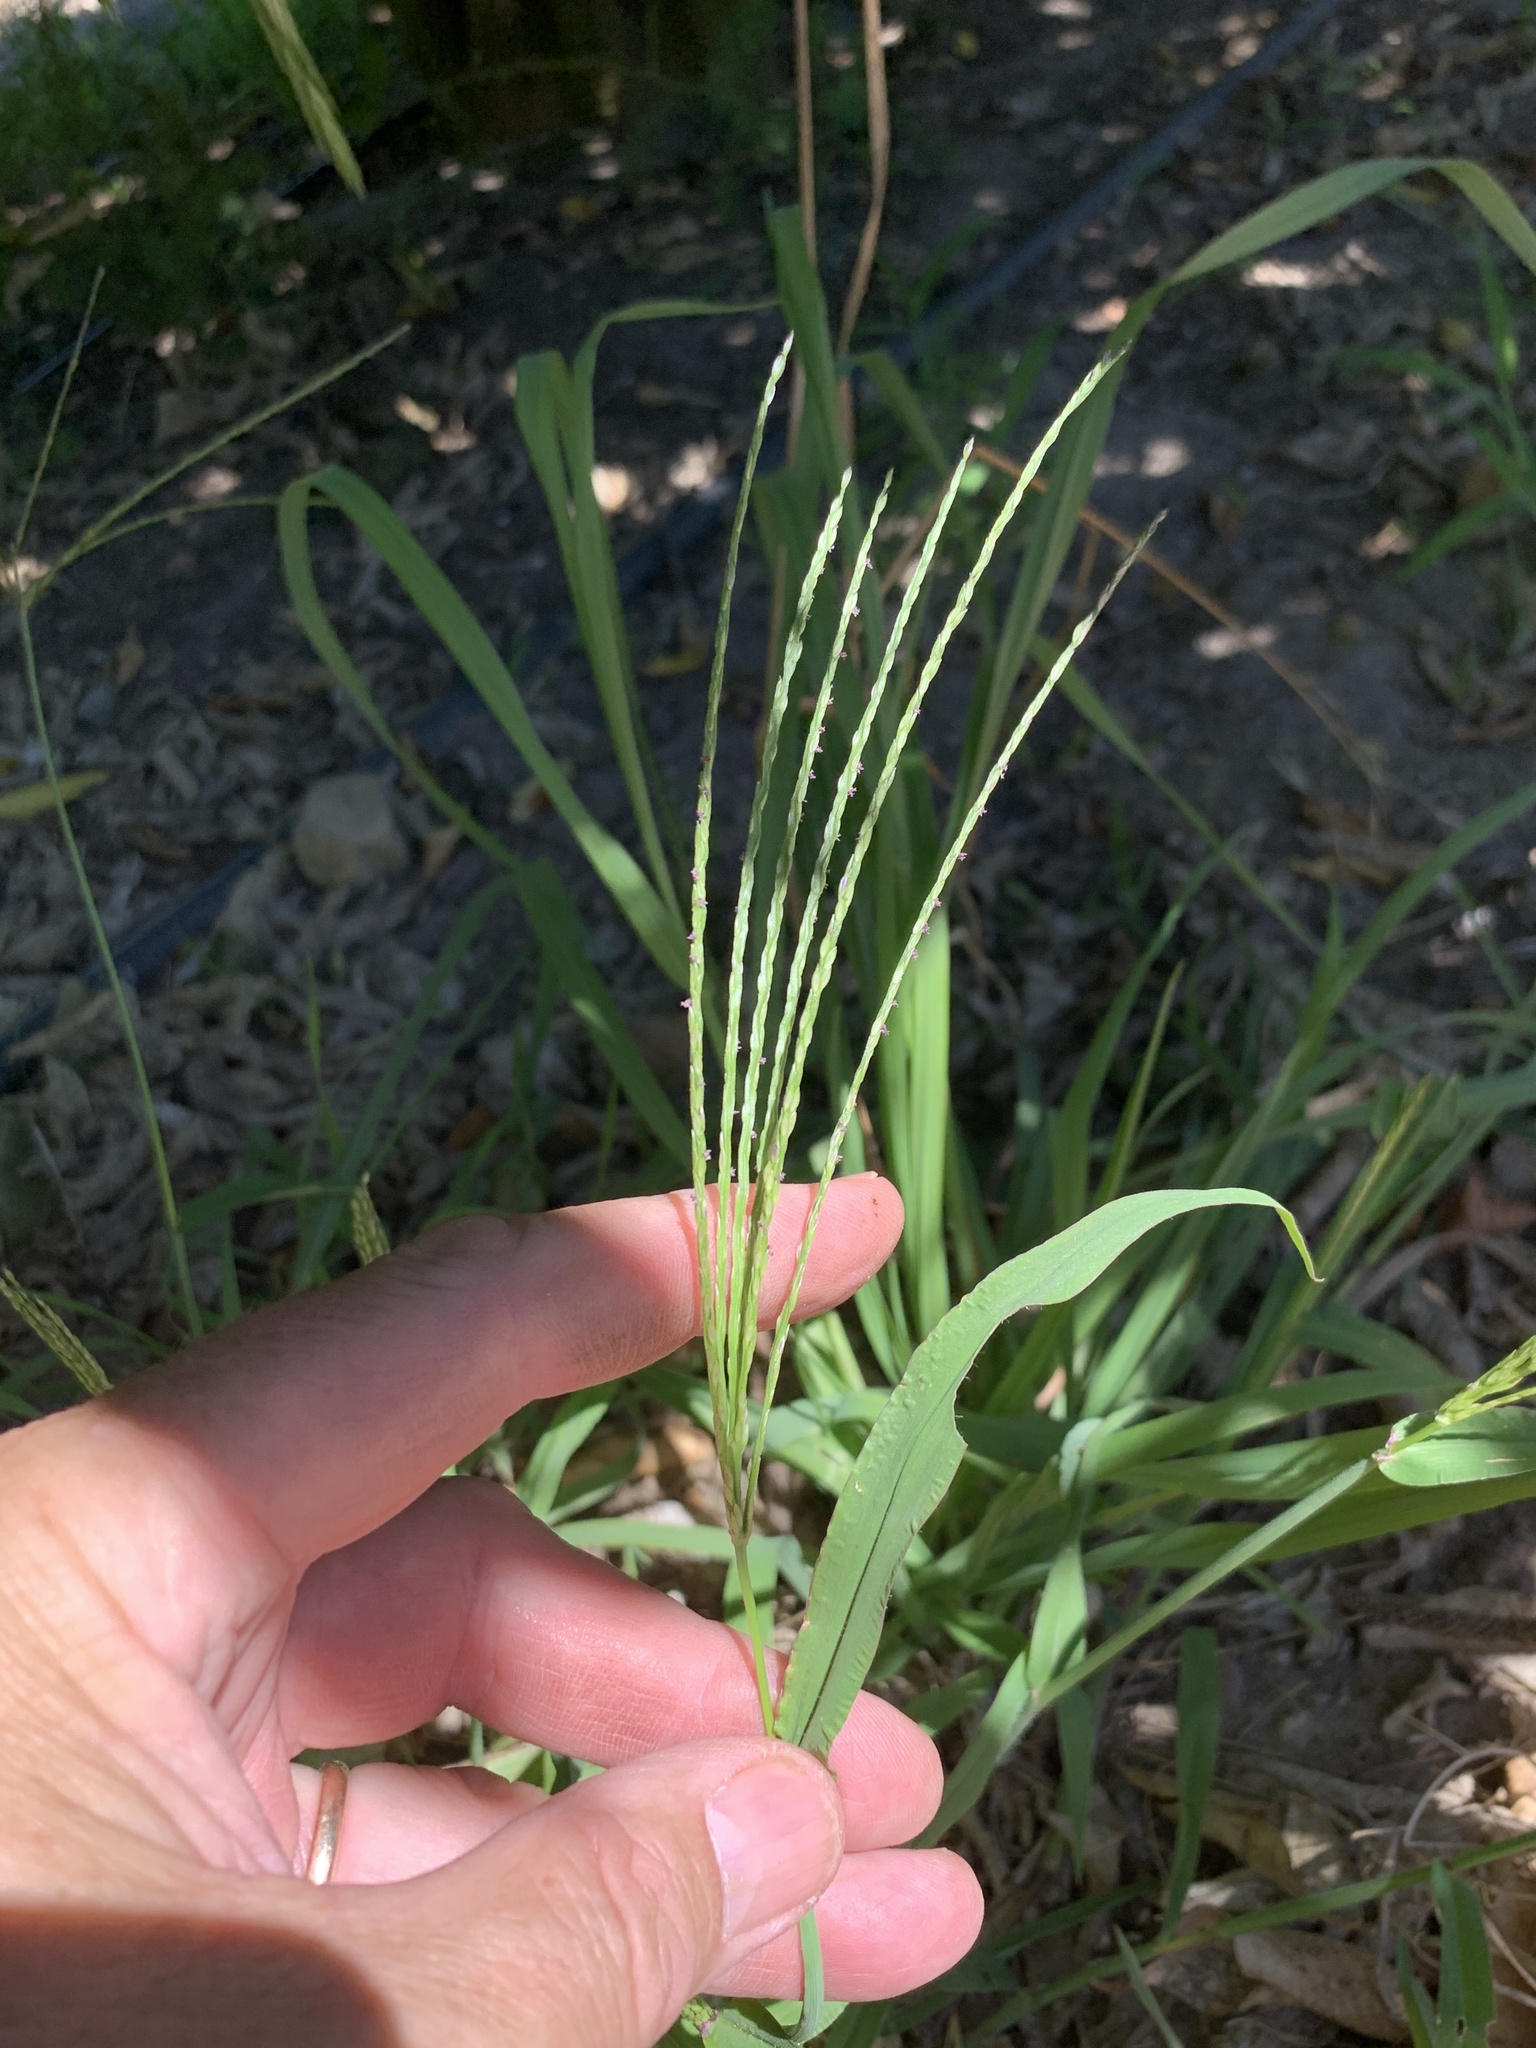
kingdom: Plantae
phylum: Tracheophyta
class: Liliopsida
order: Poales
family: Poaceae
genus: Digitaria
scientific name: Digitaria sanguinalis
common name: Hairy crabgrass
